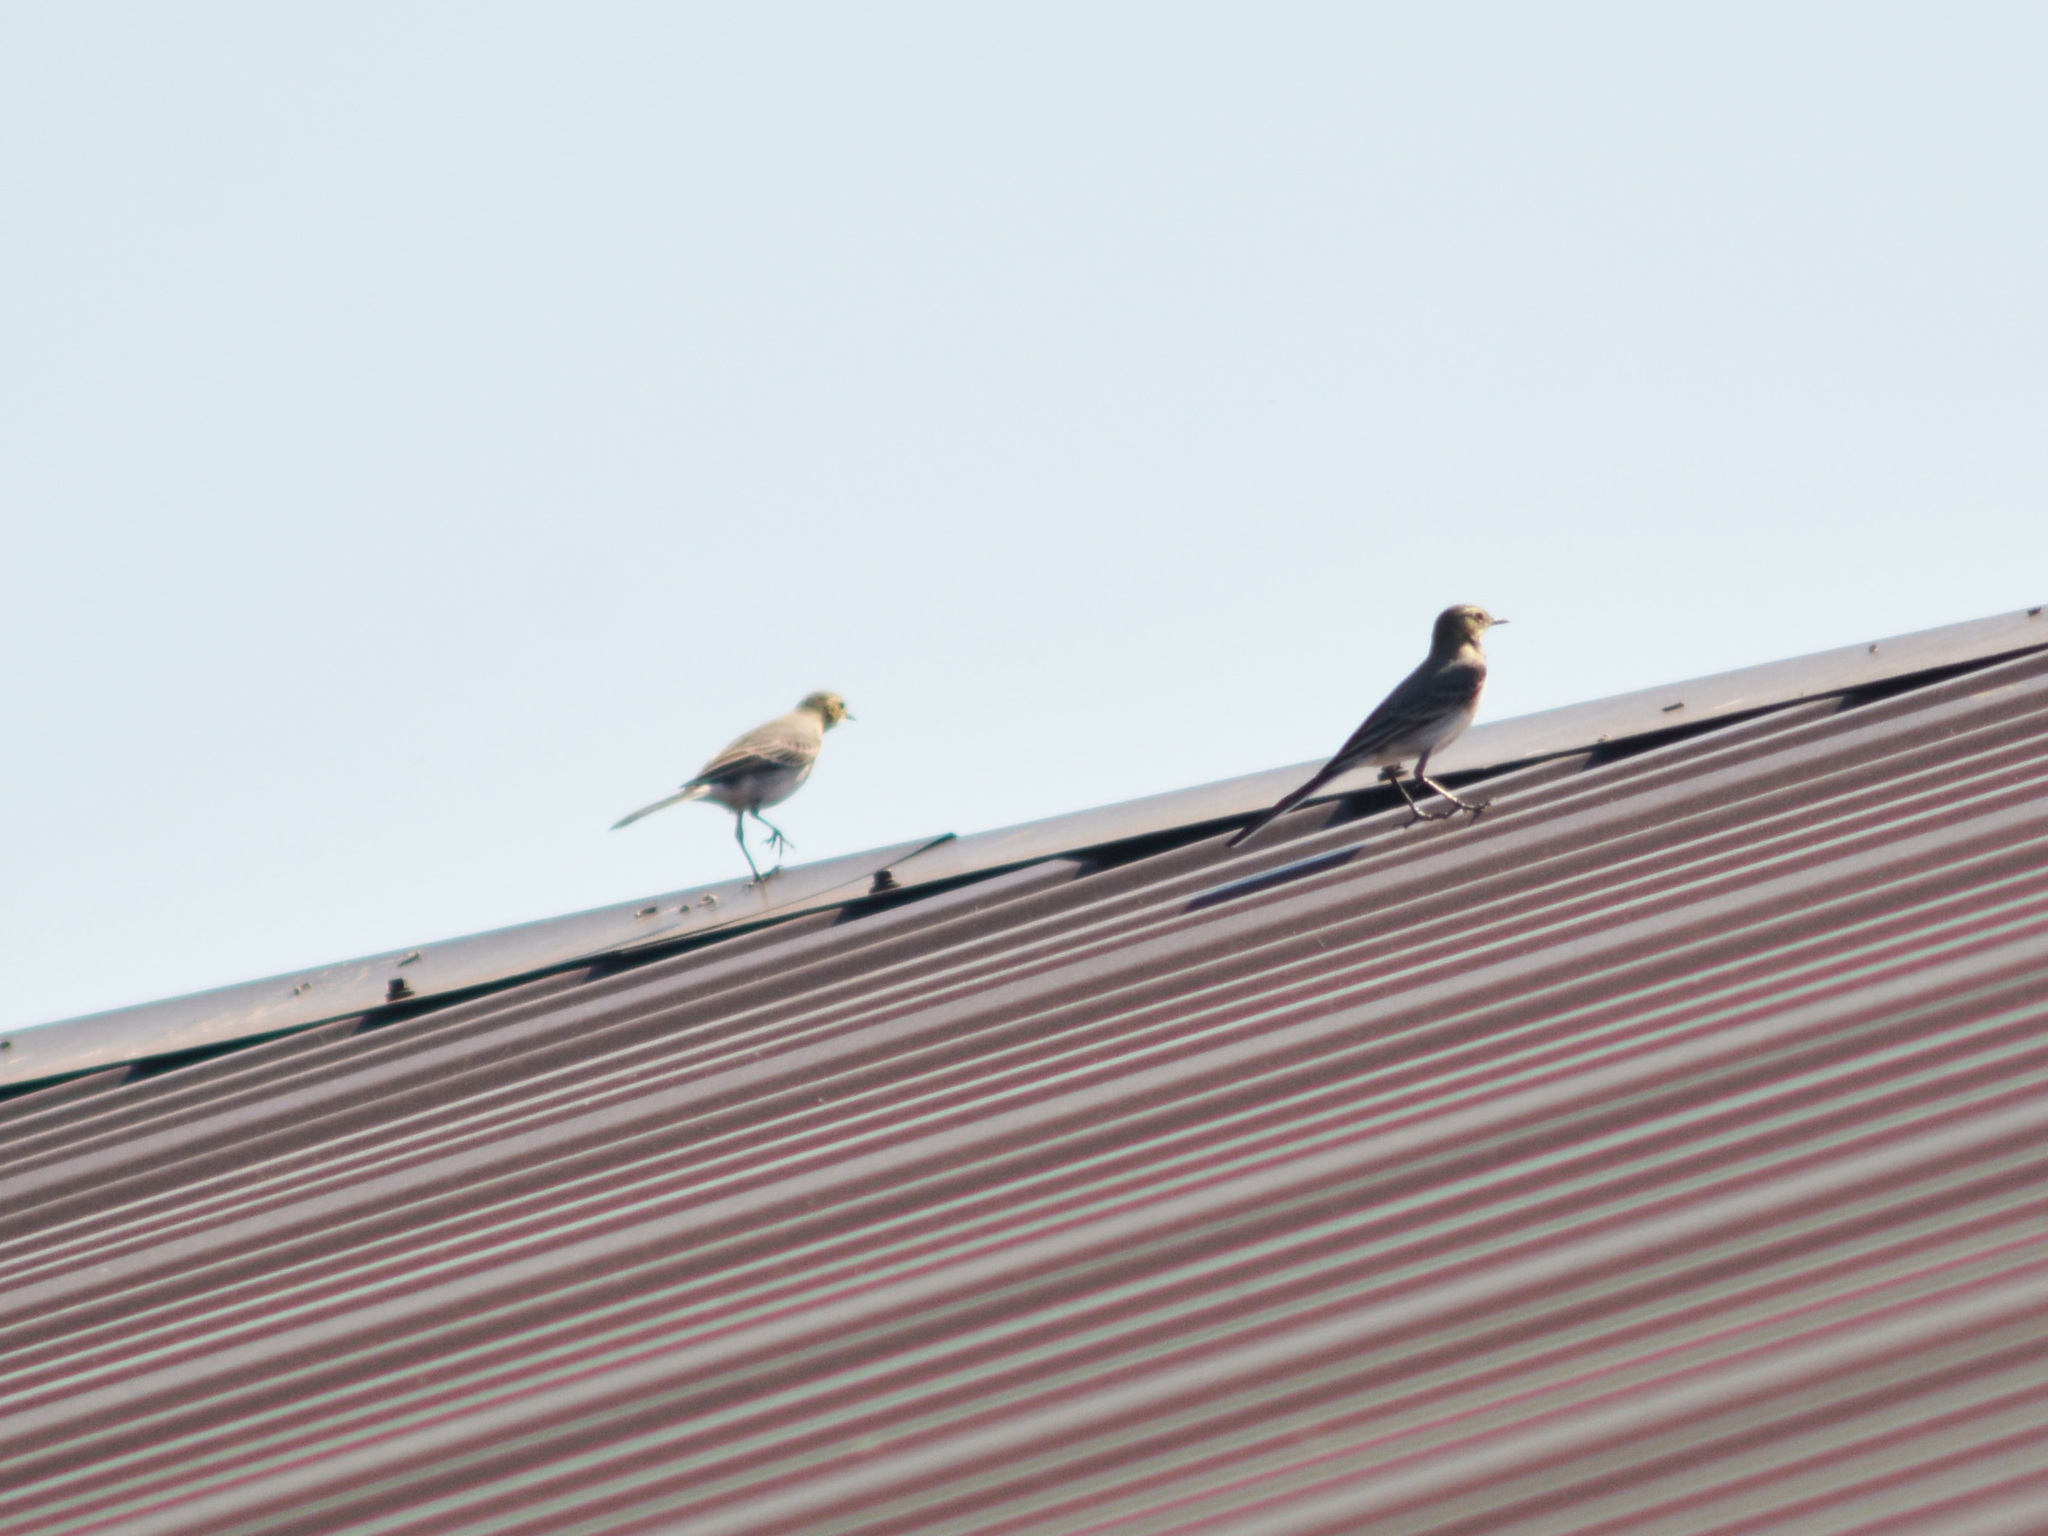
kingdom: Animalia
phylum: Chordata
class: Aves
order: Passeriformes
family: Motacillidae
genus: Motacilla
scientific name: Motacilla alba
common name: White wagtail
